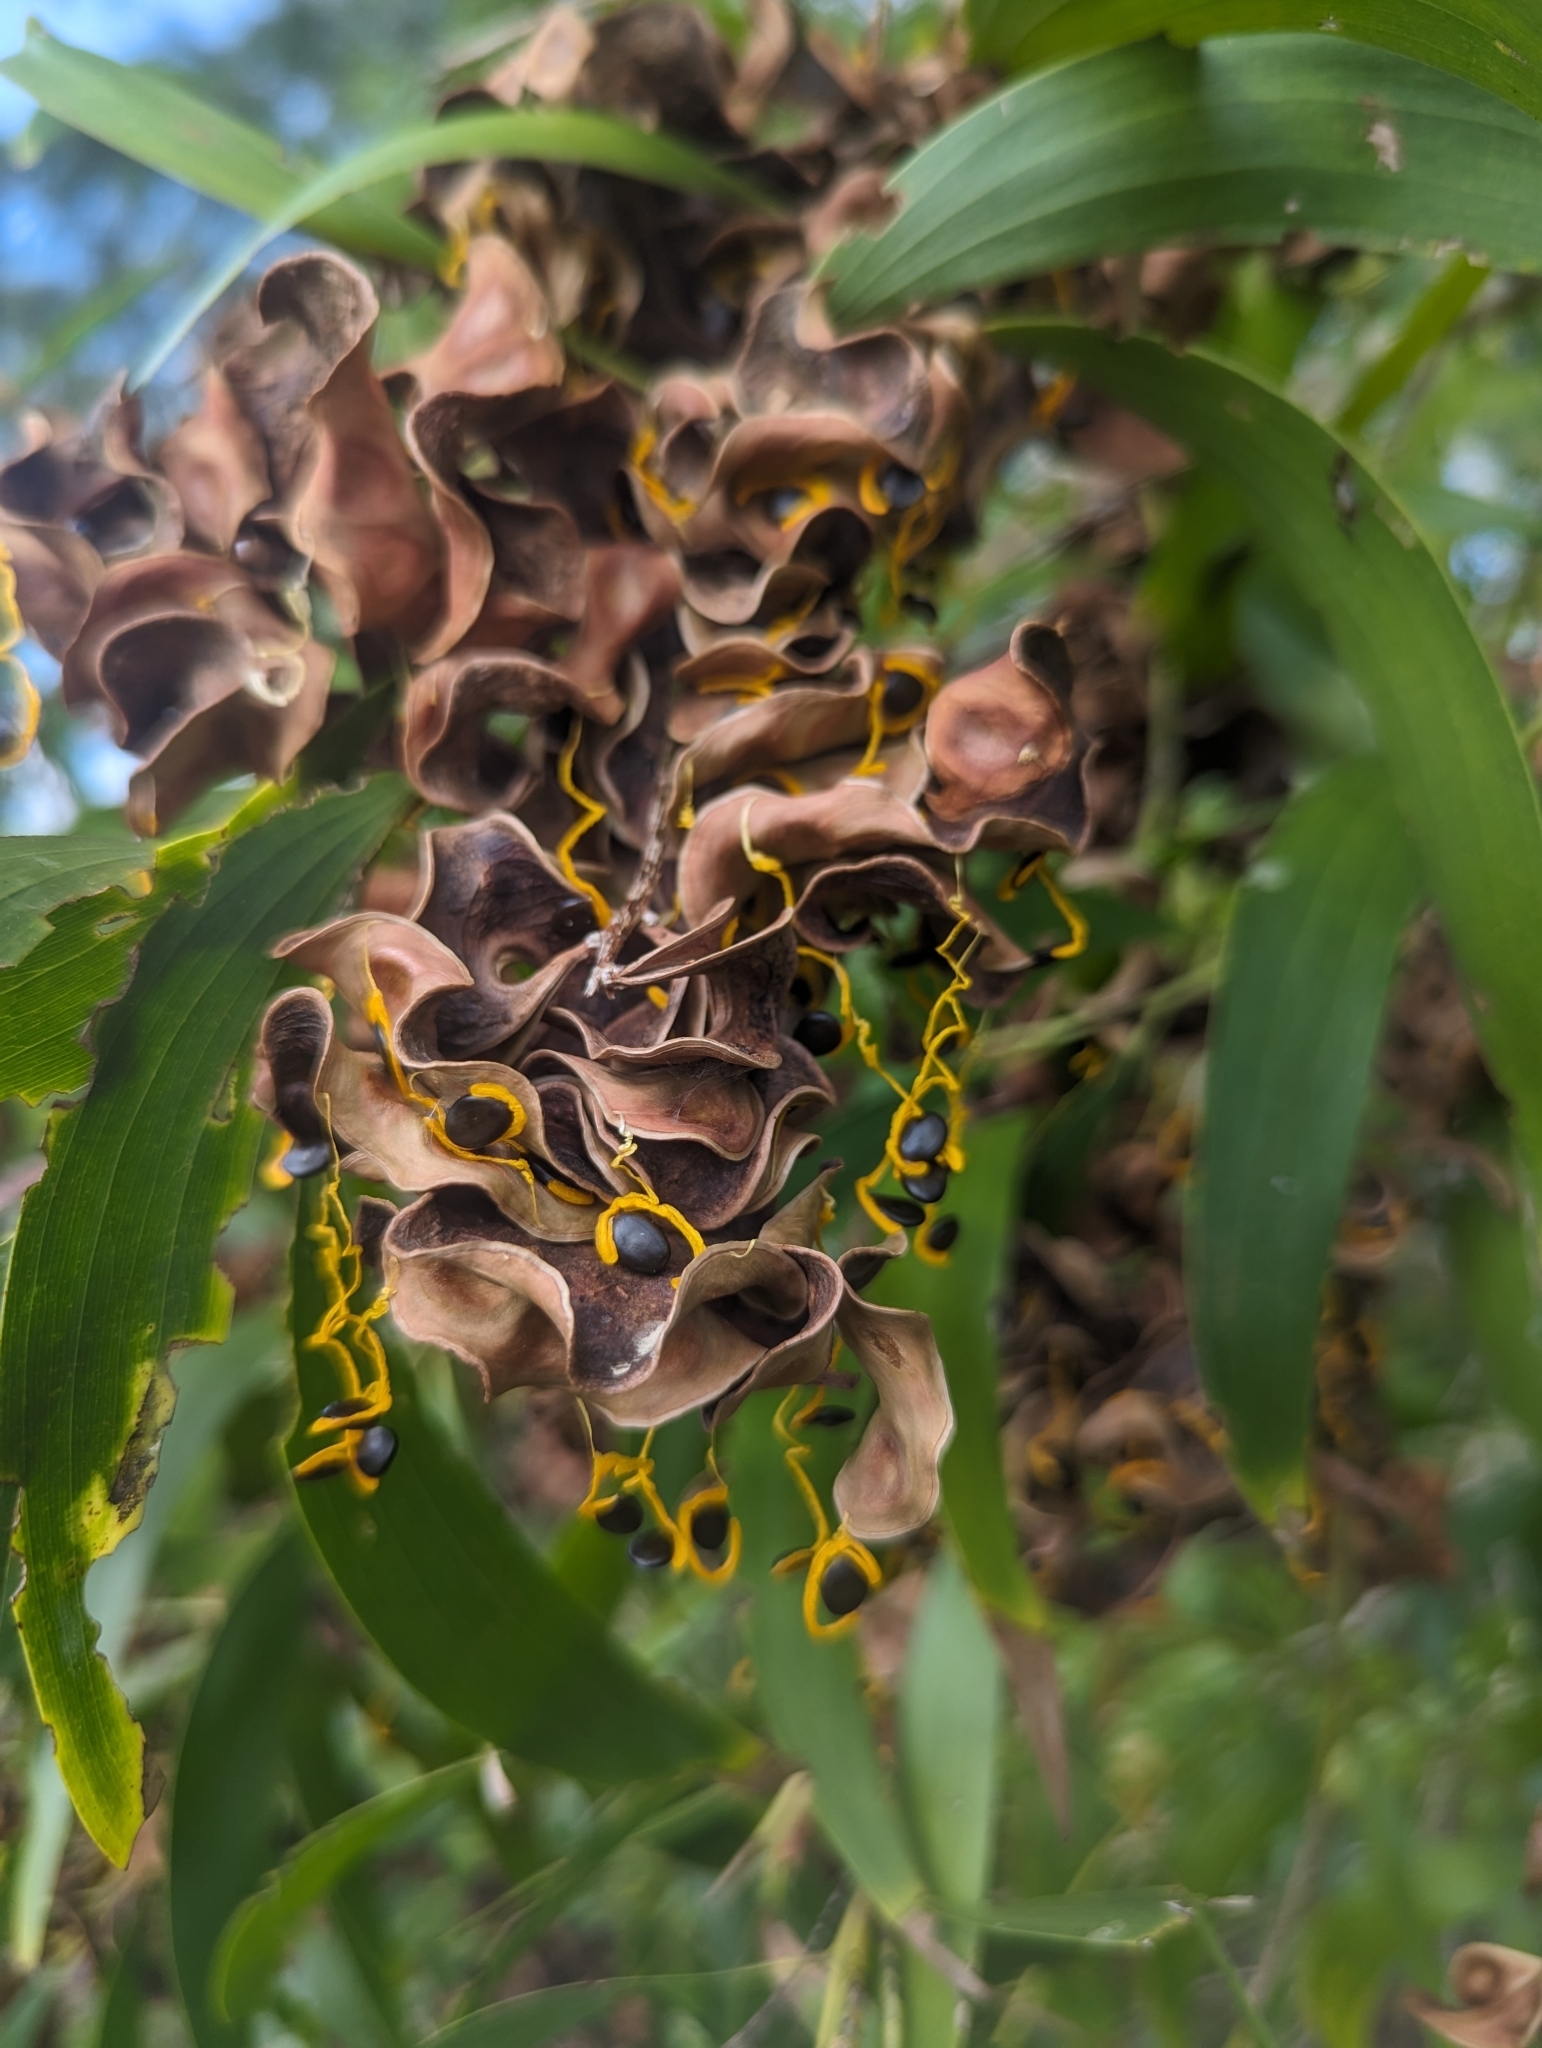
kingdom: Plantae
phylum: Tracheophyta
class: Magnoliopsida
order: Fabales
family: Fabaceae
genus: Acacia
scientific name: Acacia auriculiformis
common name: Earleaf acacia
